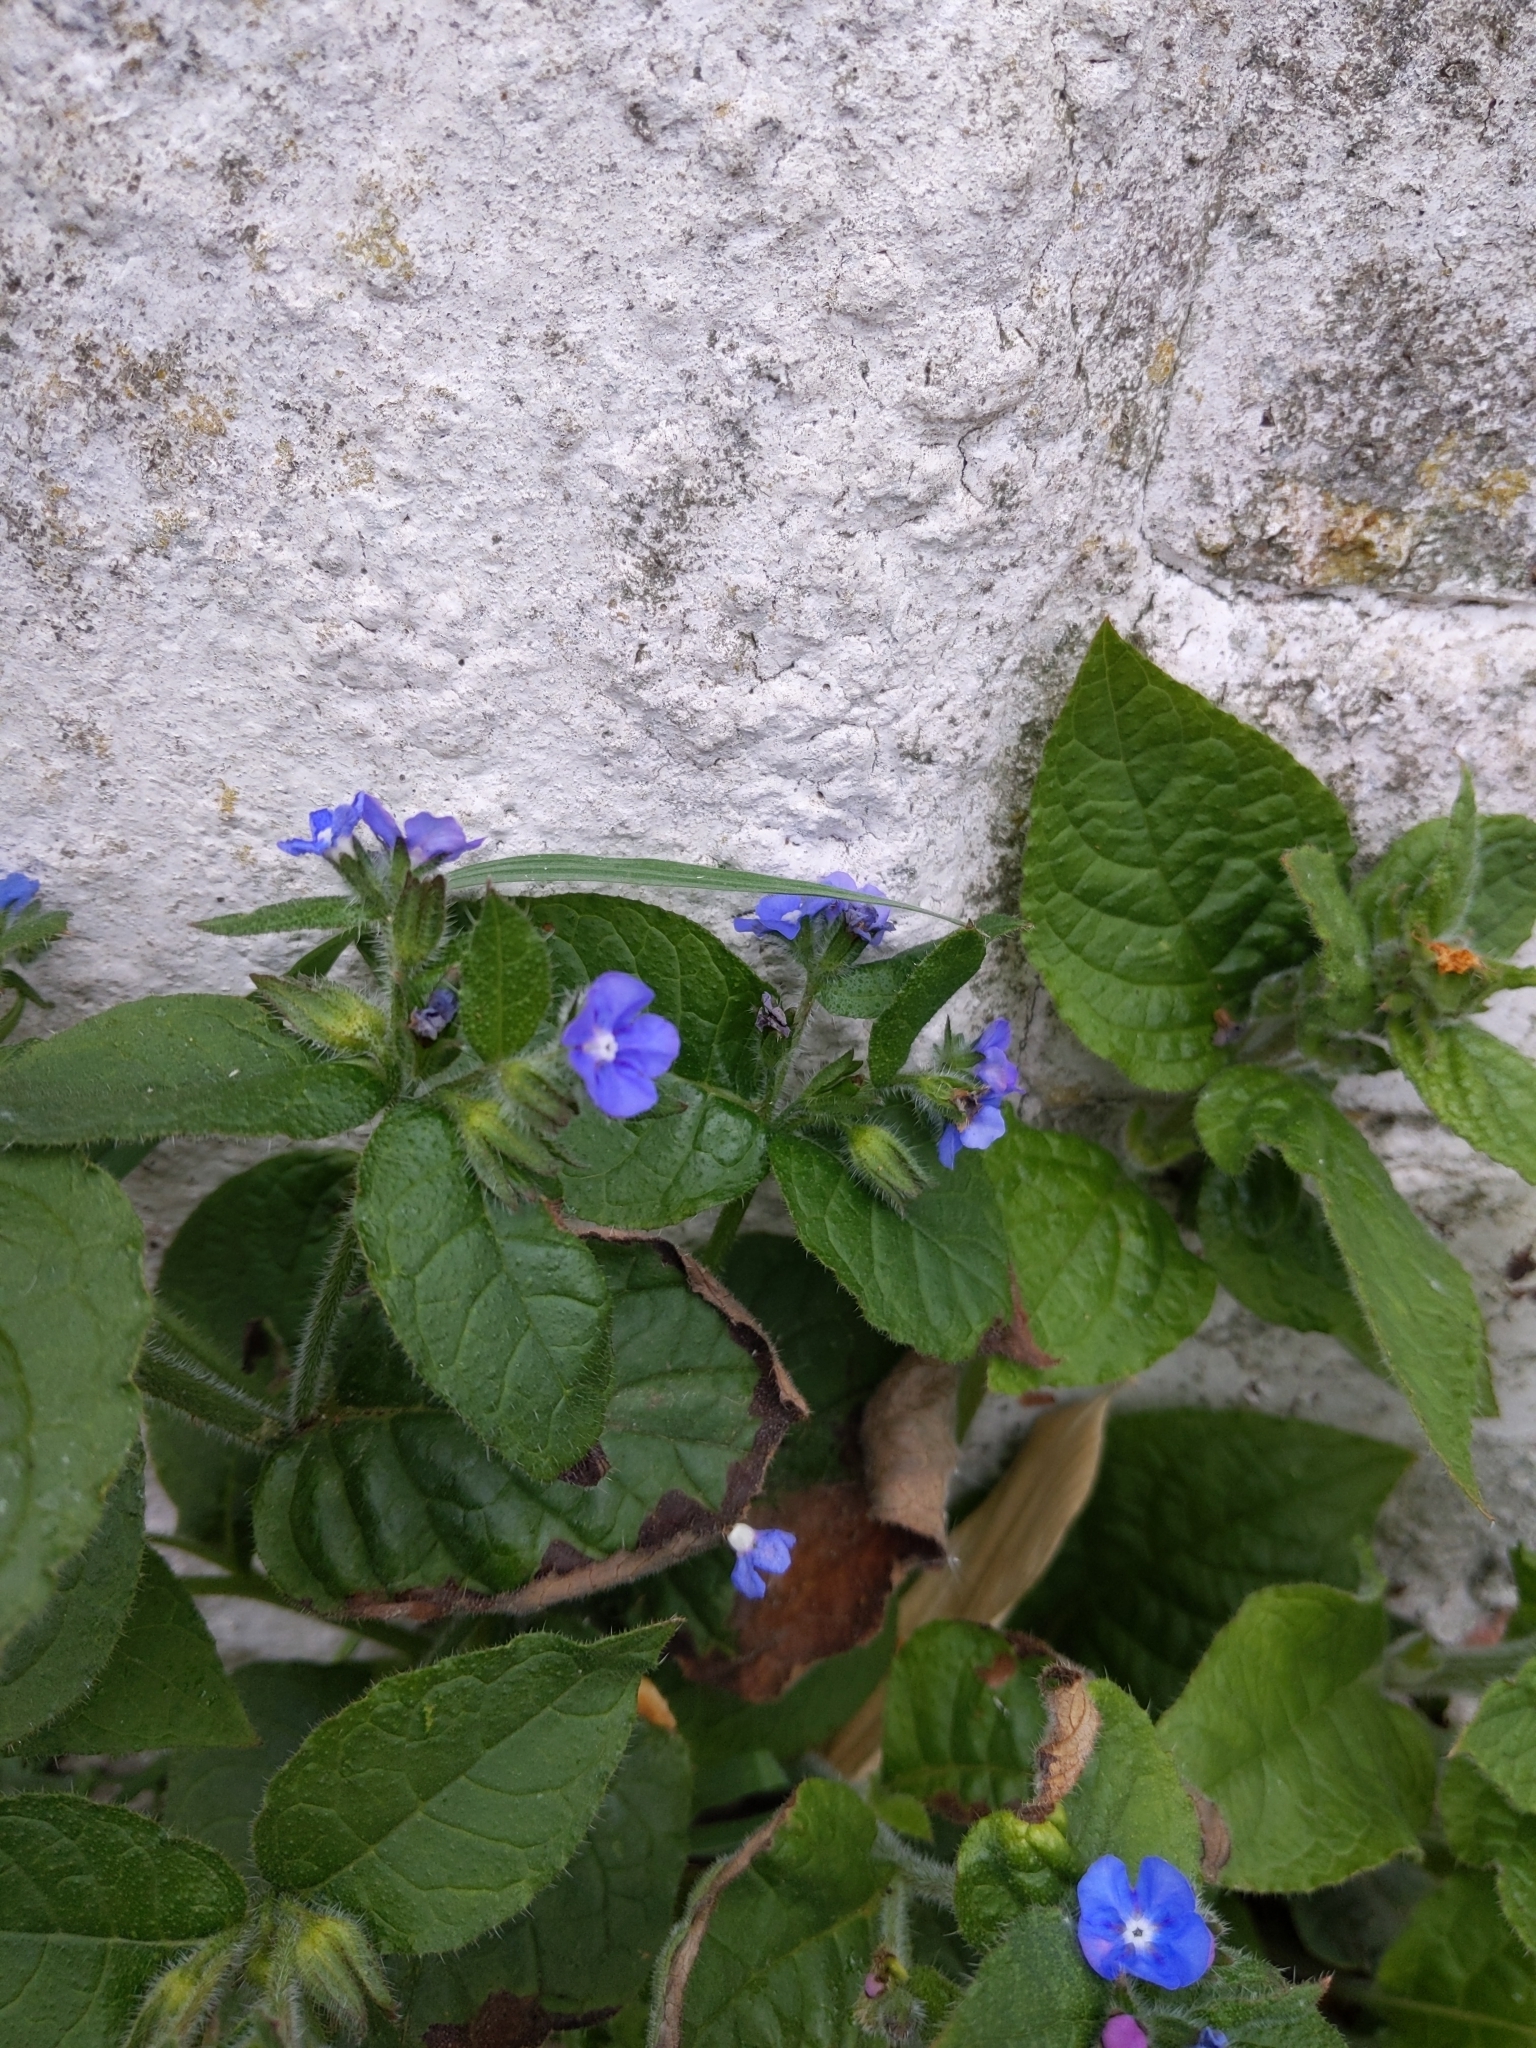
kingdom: Plantae
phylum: Tracheophyta
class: Magnoliopsida
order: Boraginales
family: Boraginaceae
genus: Pentaglottis
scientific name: Pentaglottis sempervirens
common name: Green alkanet
